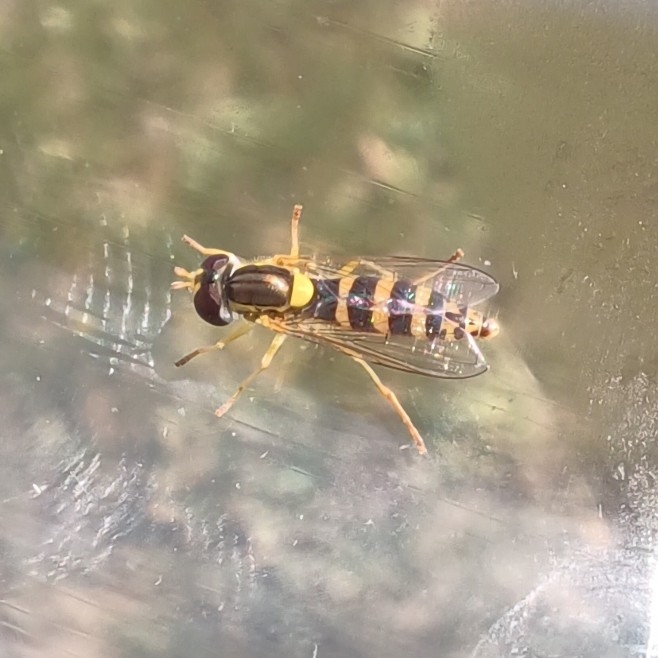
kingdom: Animalia
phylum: Arthropoda
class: Insecta
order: Diptera
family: Syrphidae
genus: Sphaerophoria
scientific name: Sphaerophoria
